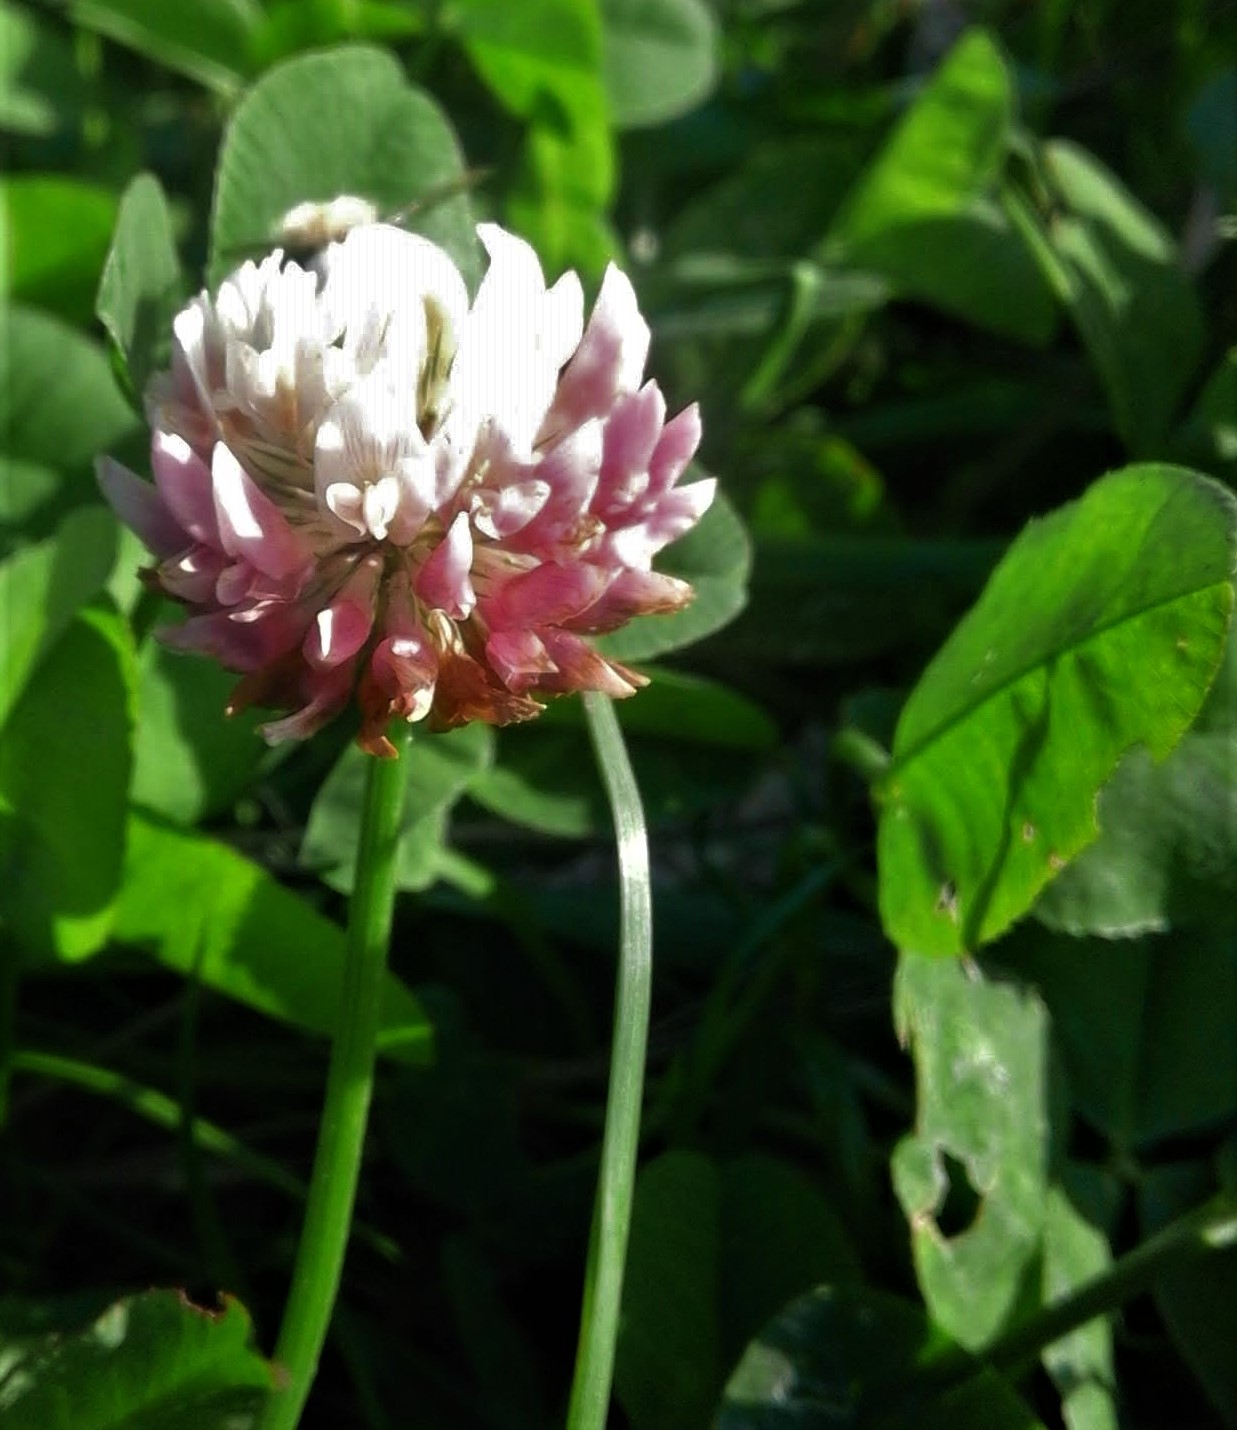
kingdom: Plantae
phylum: Tracheophyta
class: Magnoliopsida
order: Fabales
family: Fabaceae
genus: Trifolium
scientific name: Trifolium hybridum
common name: Alsike clover
